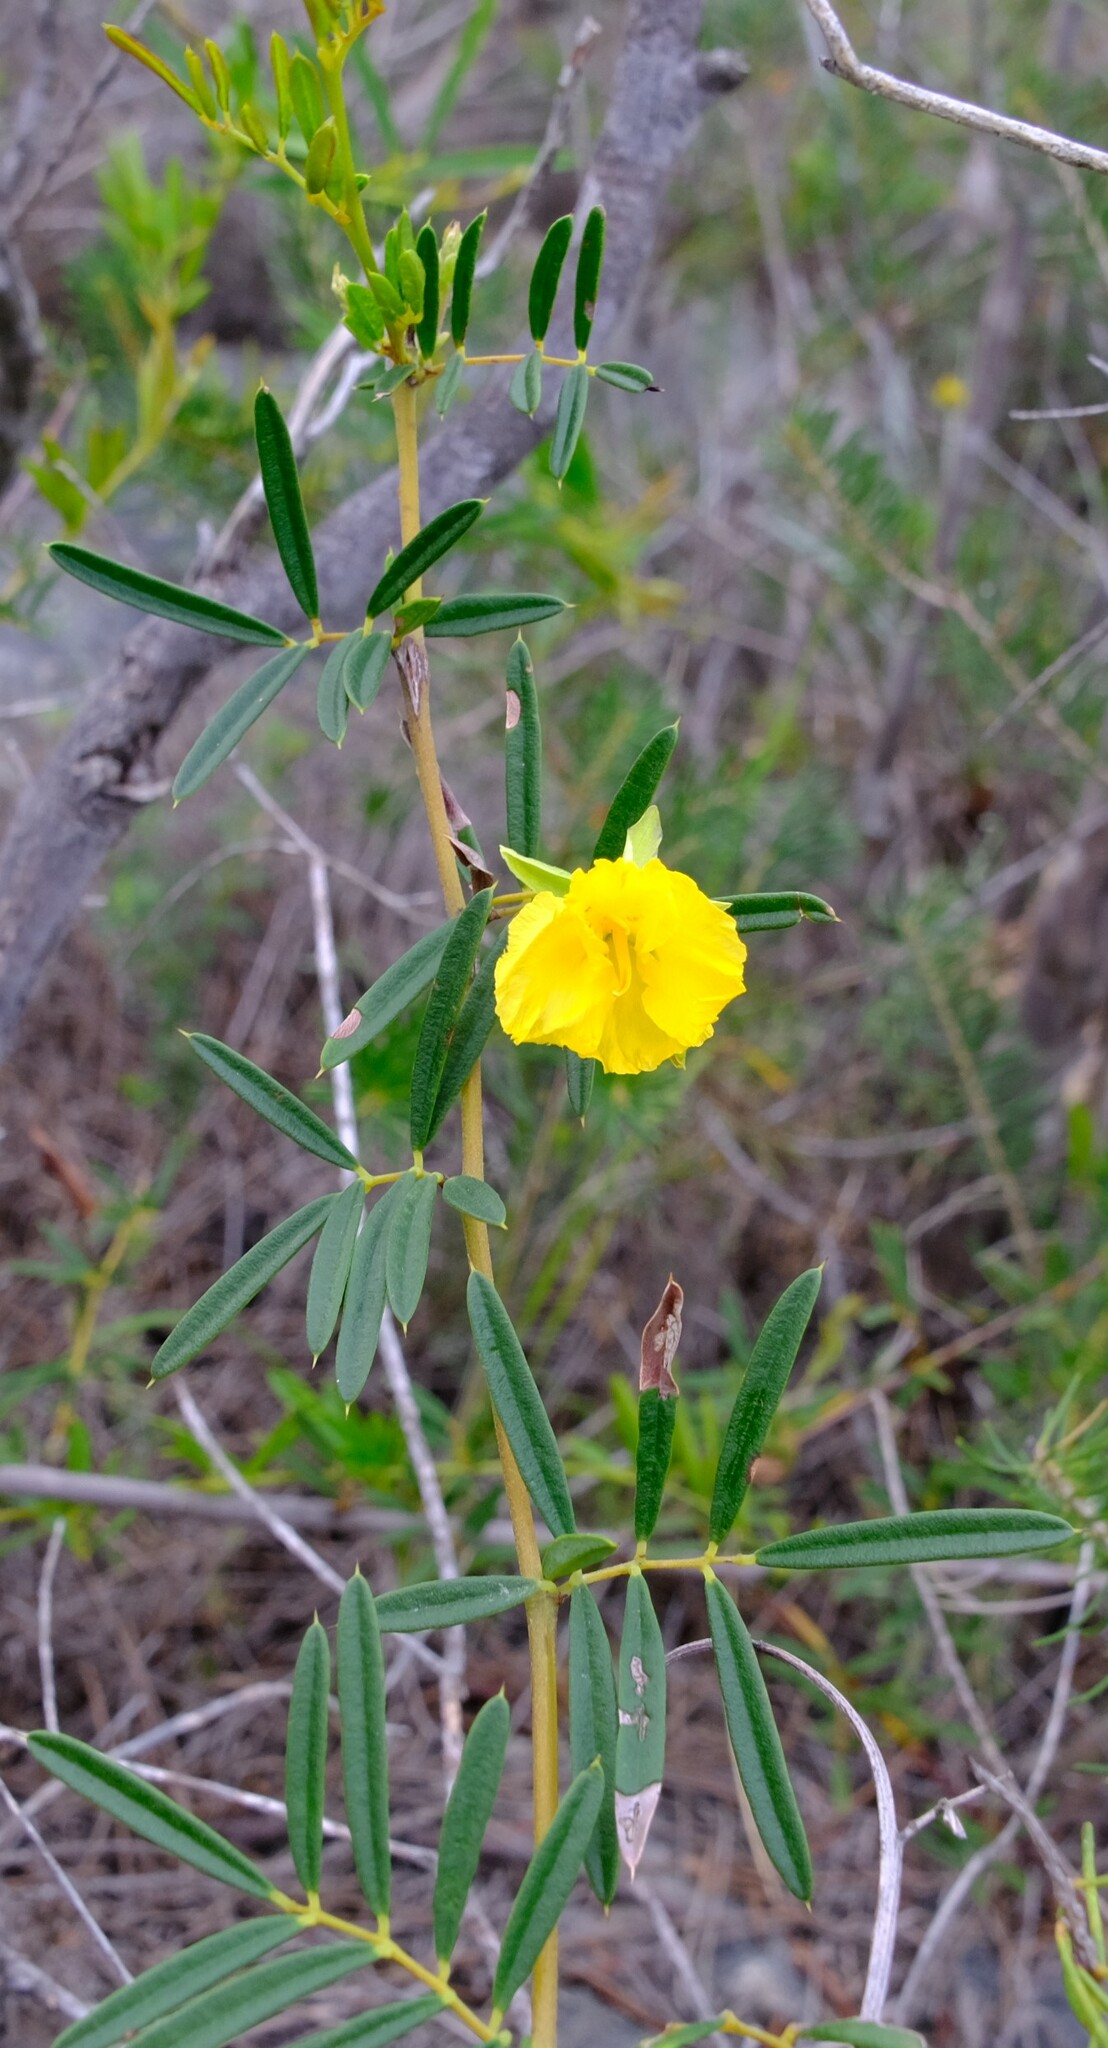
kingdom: Plantae
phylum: Tracheophyta
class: Magnoliopsida
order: Fabales
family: Fabaceae
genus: Labichea
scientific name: Labichea cassioides
